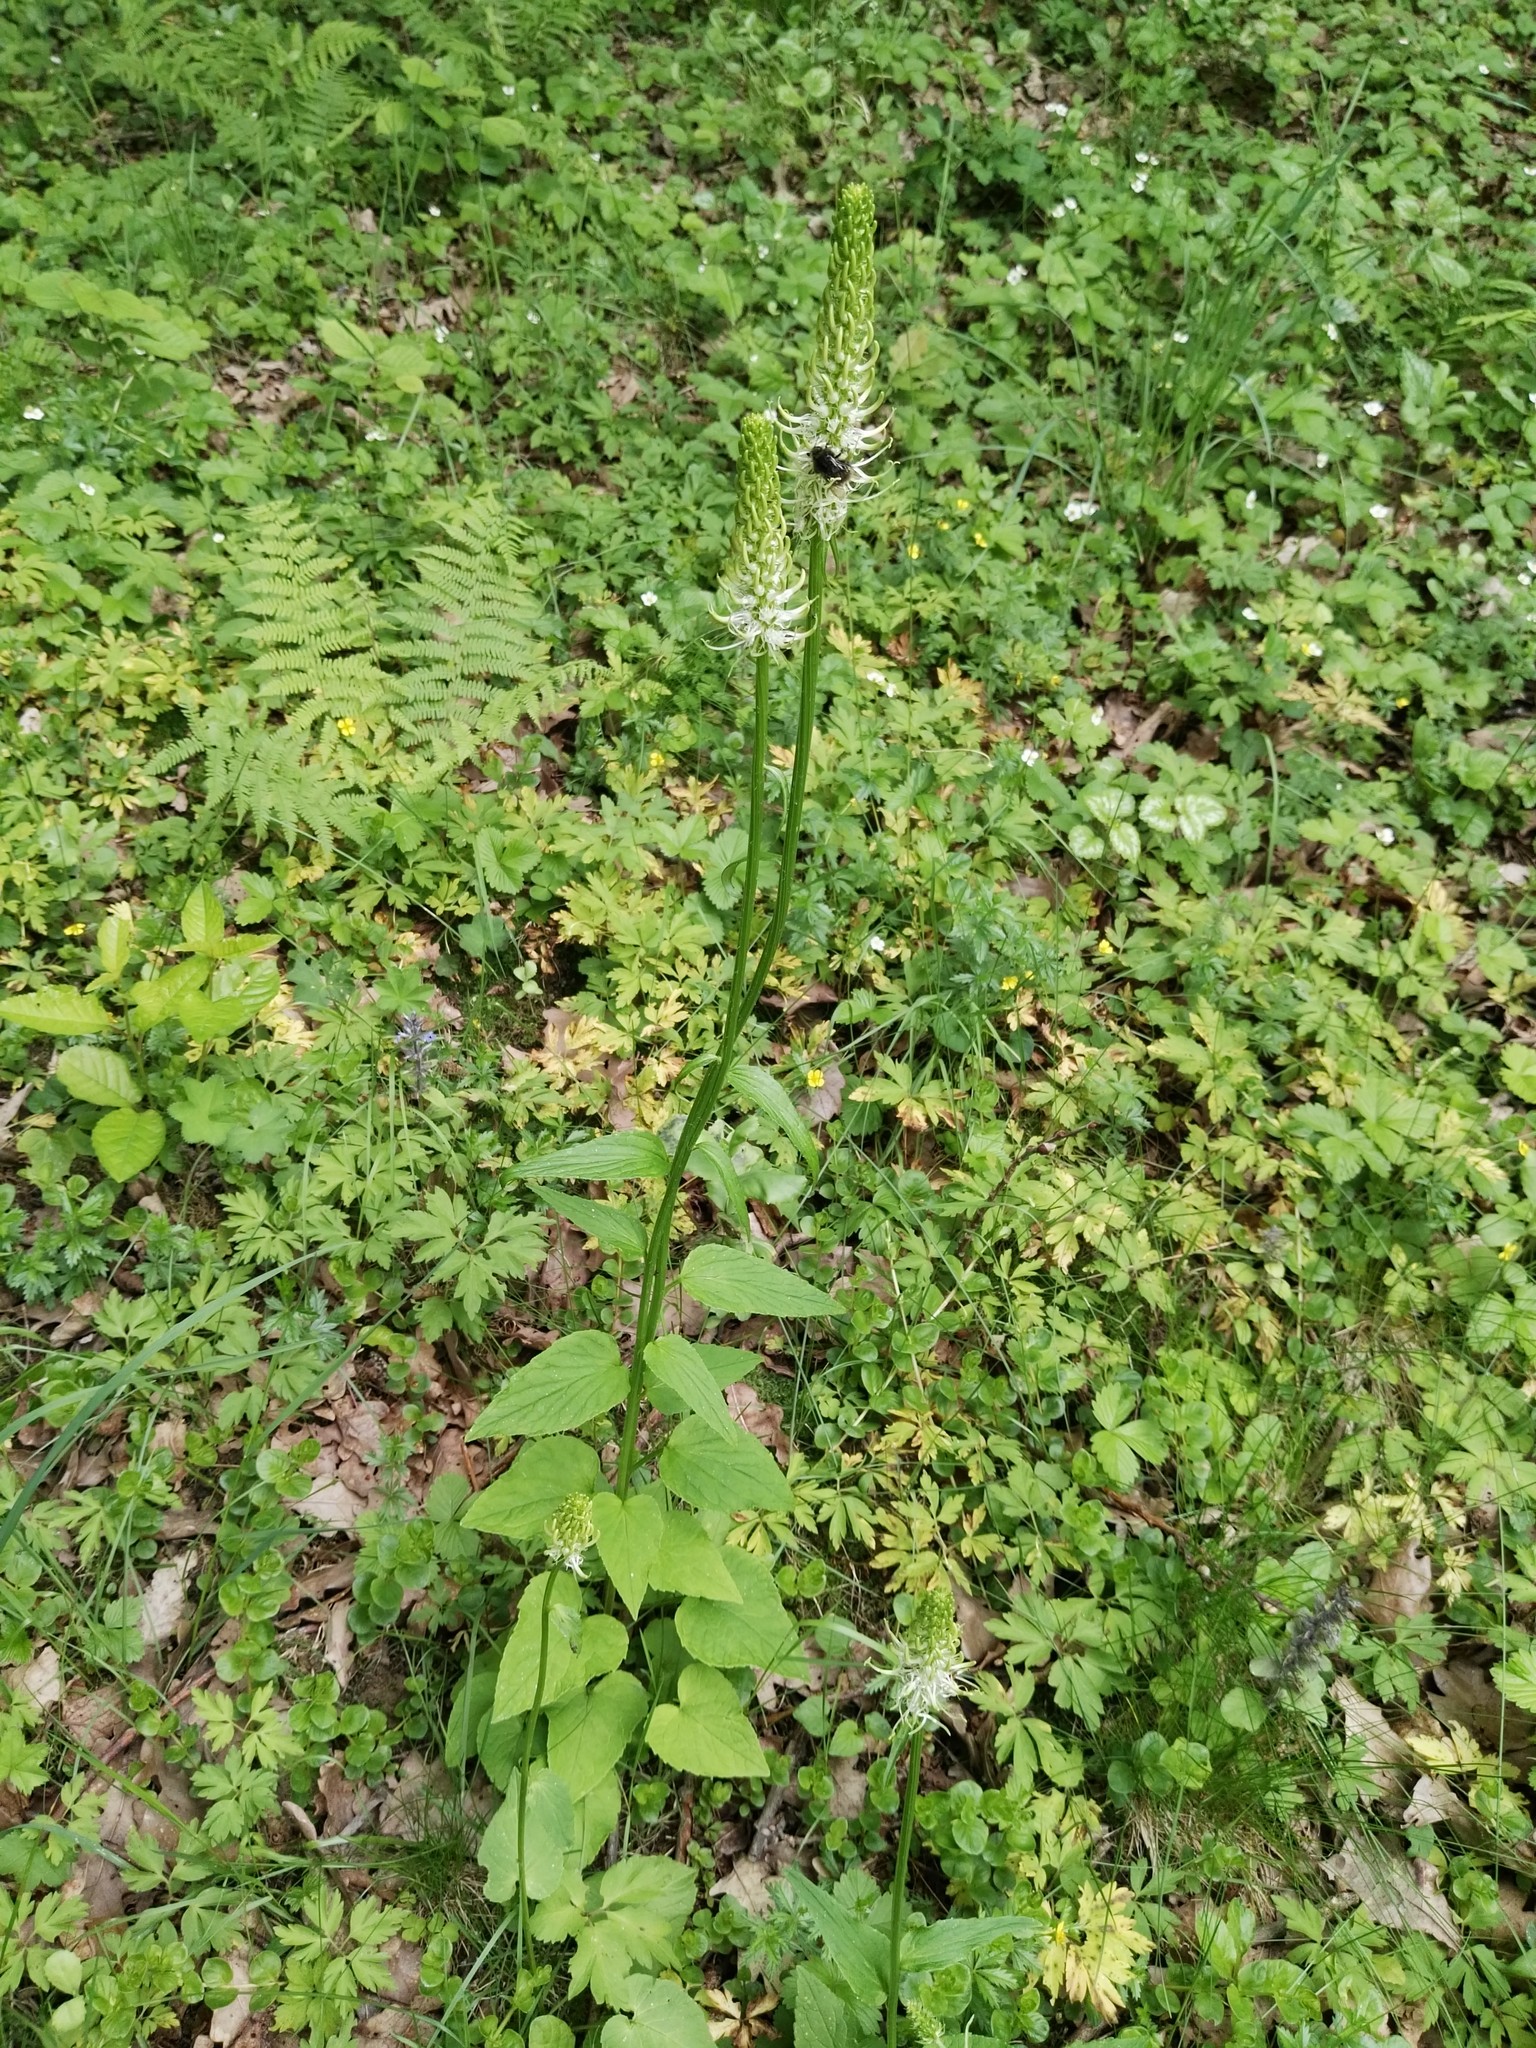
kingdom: Plantae
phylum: Tracheophyta
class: Magnoliopsida
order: Asterales
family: Campanulaceae
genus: Phyteuma
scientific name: Phyteuma spicatum
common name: Spiked rampion
